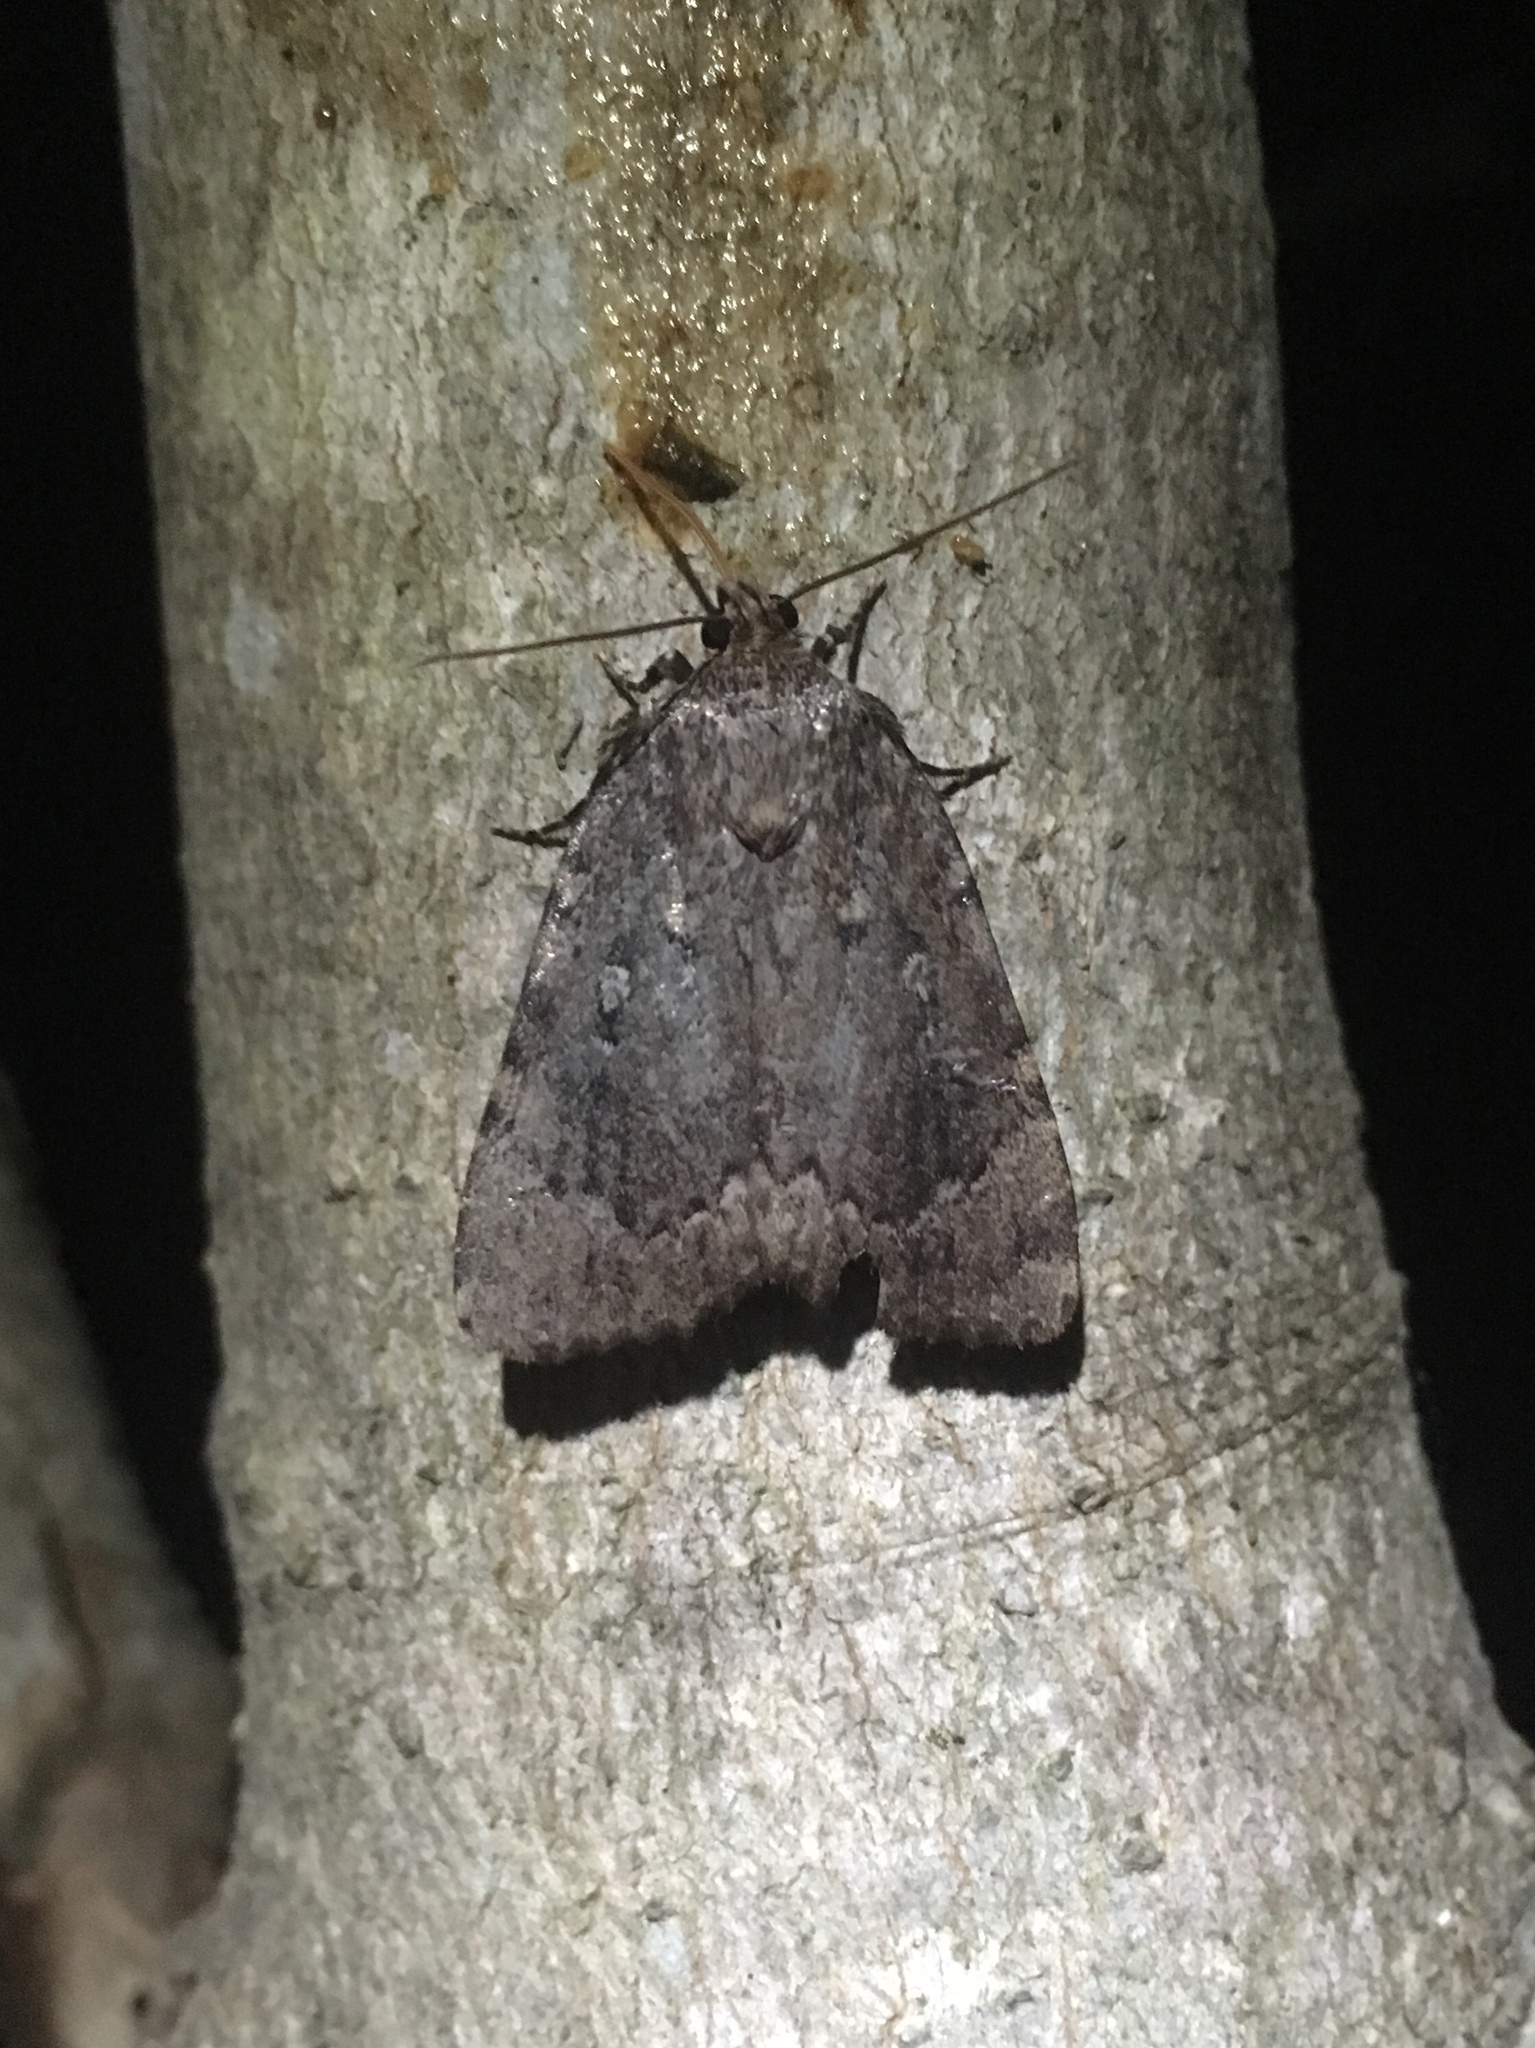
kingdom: Animalia
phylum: Arthropoda
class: Insecta
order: Lepidoptera
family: Noctuidae
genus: Amphipyra
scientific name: Amphipyra pyramidoides
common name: American copper underwing
